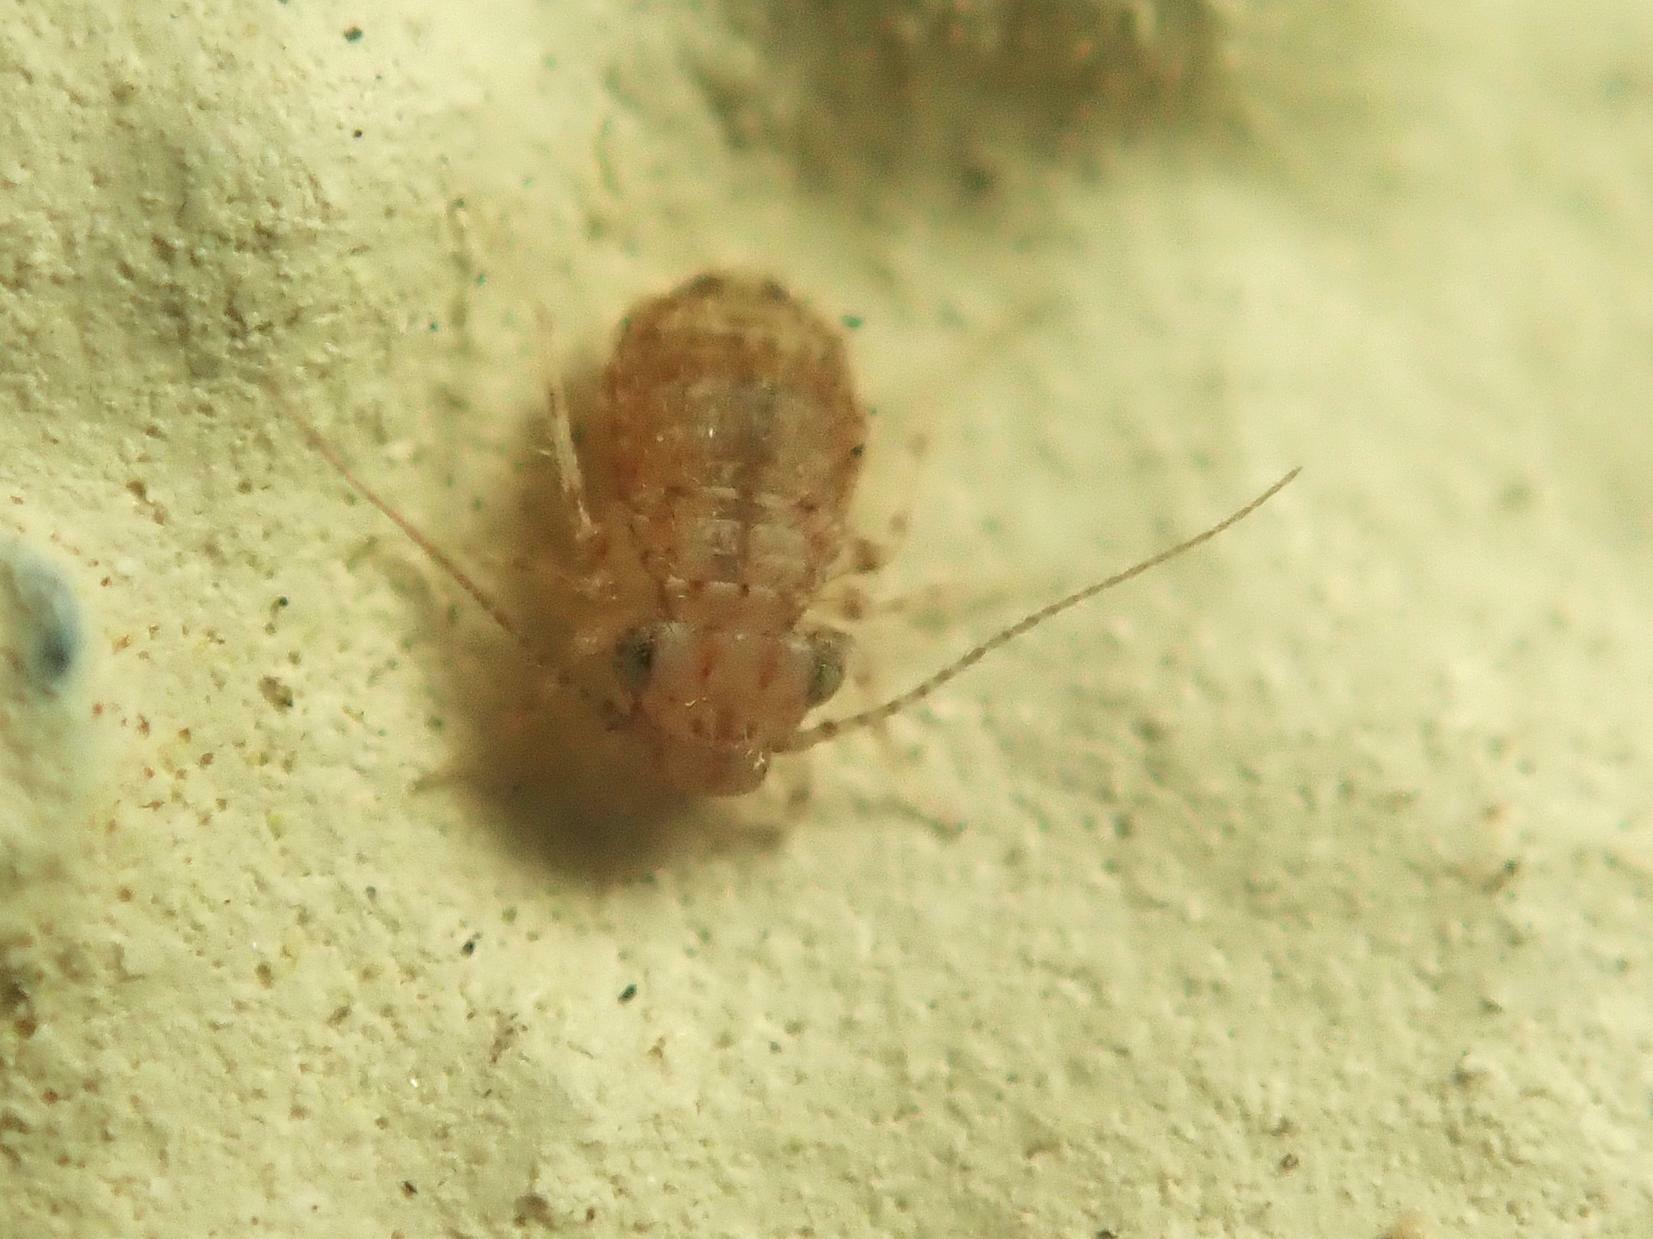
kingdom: Animalia
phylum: Arthropoda
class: Insecta
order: Psocodea
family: Trogiidae
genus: Cerobasis
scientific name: Cerobasis guestfalica
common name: Book lice
